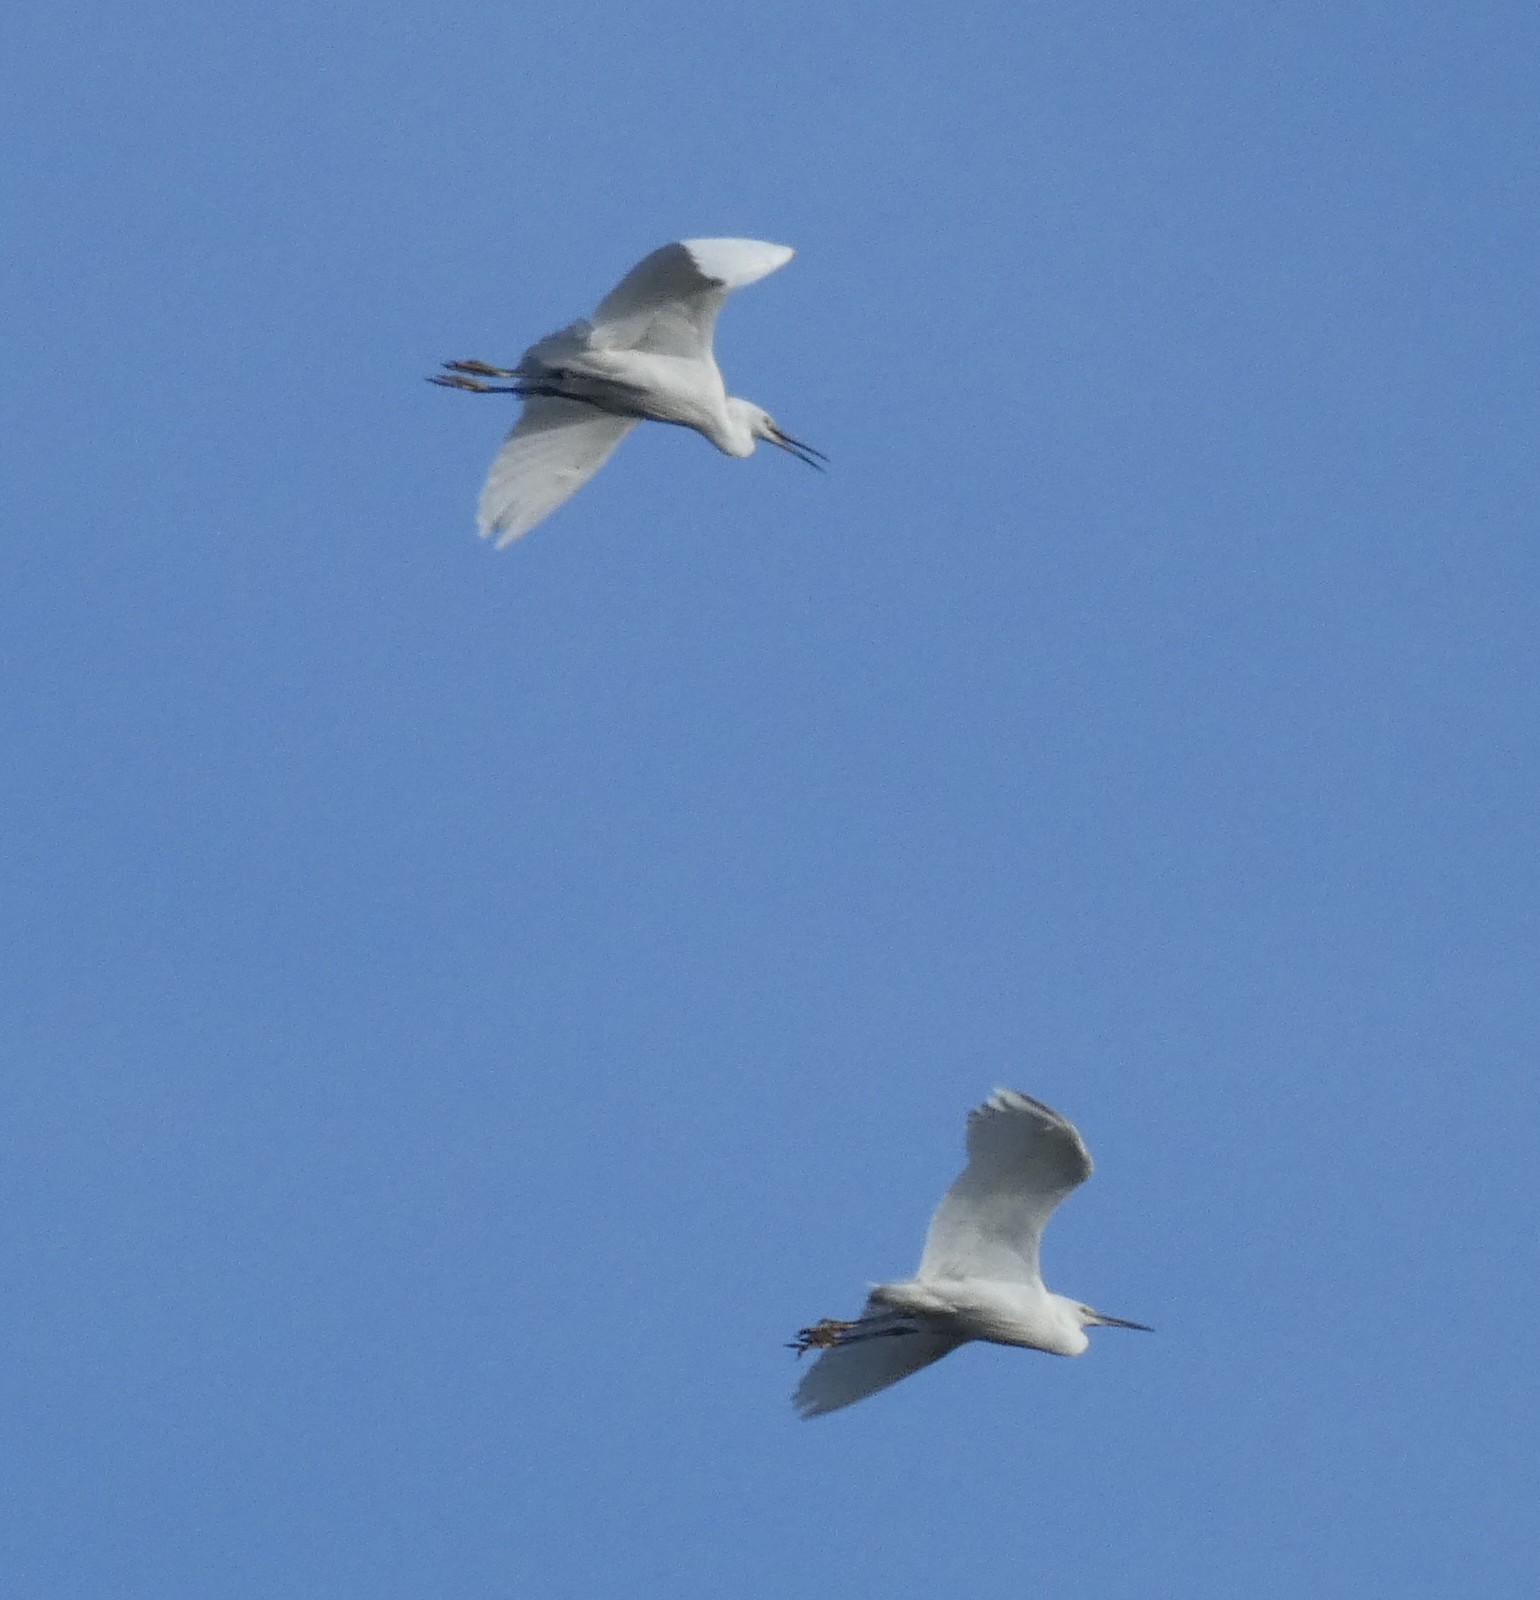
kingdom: Animalia
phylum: Chordata
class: Aves
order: Pelecaniformes
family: Ardeidae
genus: Egretta
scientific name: Egretta garzetta
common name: Little egret
